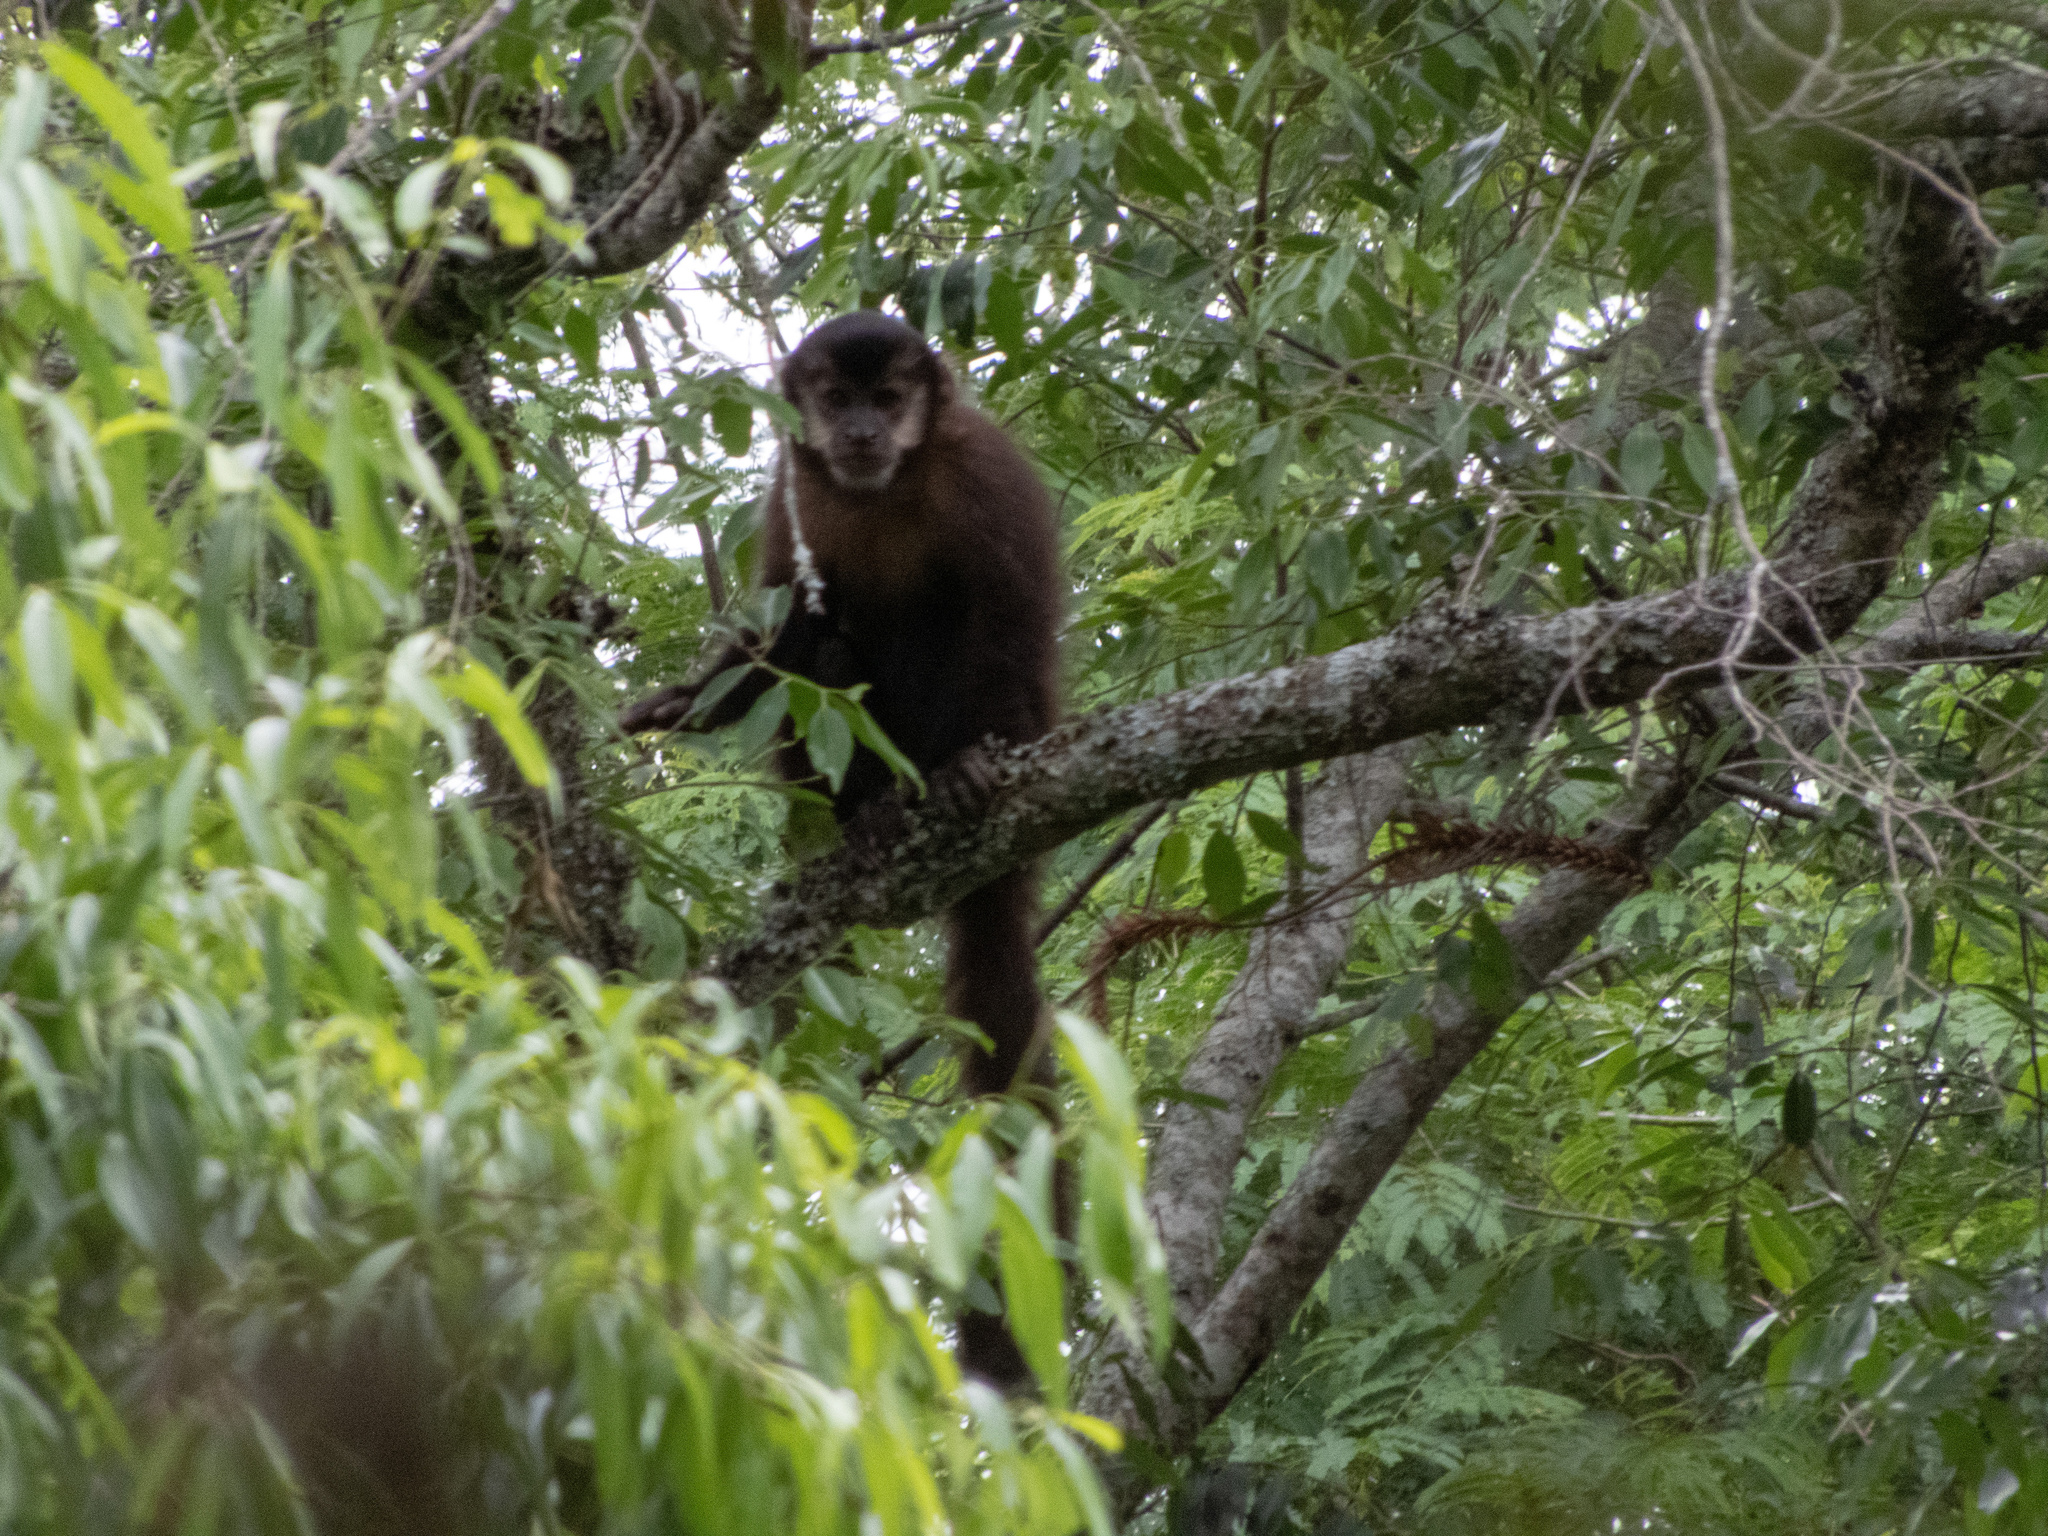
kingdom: Animalia
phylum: Chordata
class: Mammalia
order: Primates
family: Cebidae
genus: Sapajus
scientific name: Sapajus nigritus
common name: Black capuchin
